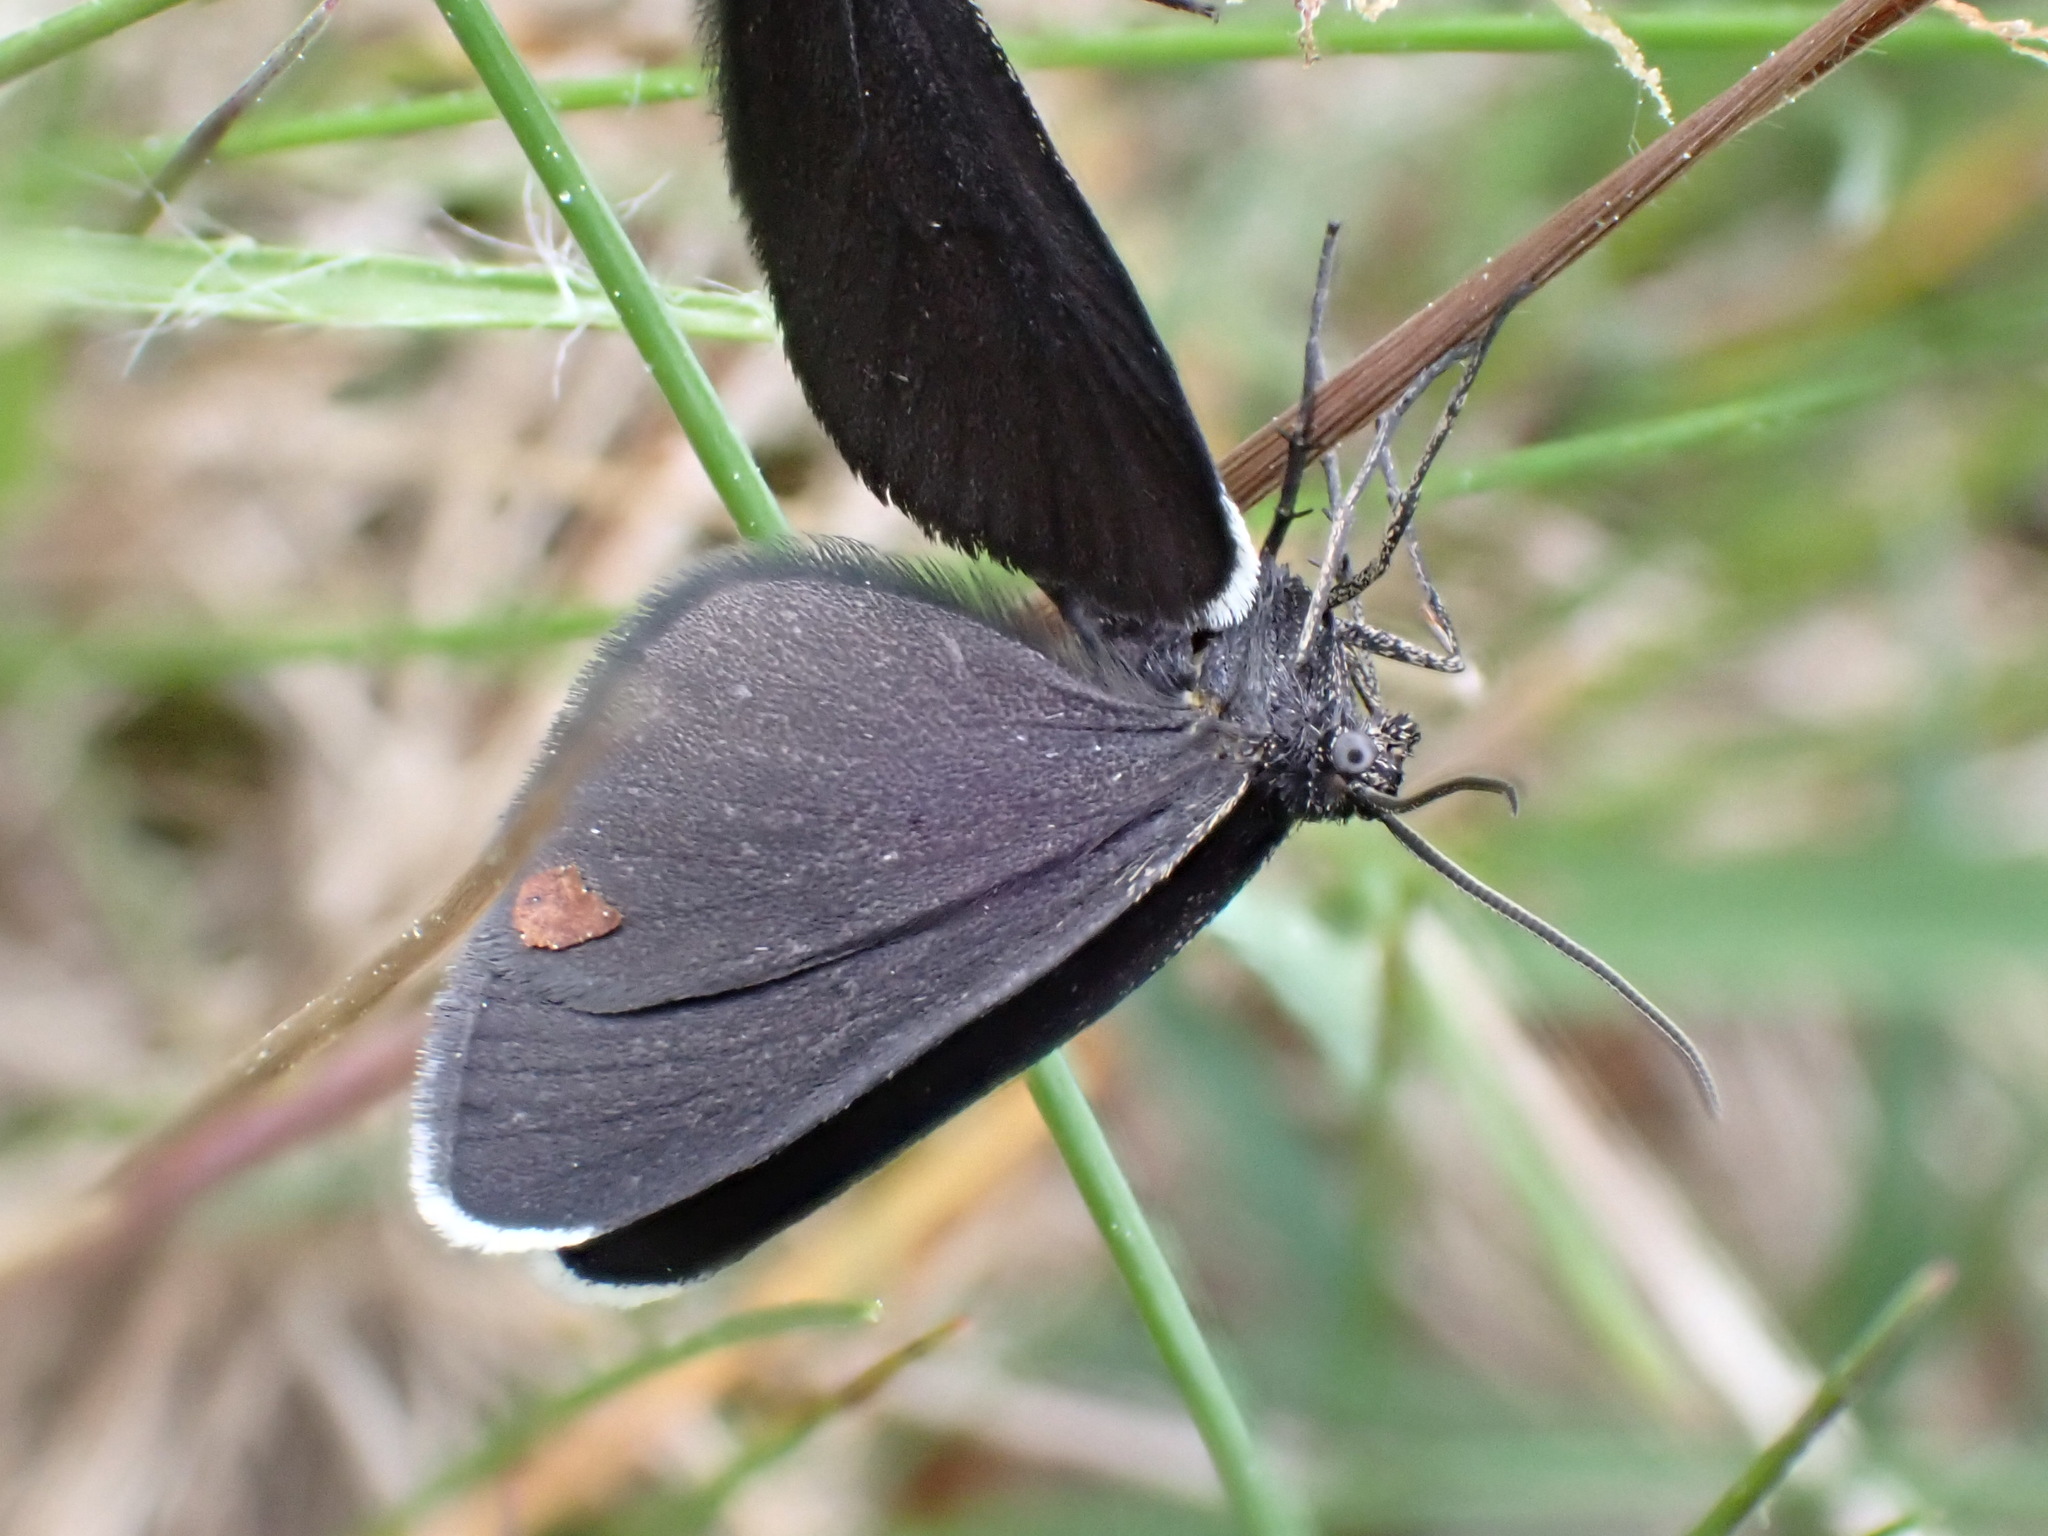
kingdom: Animalia
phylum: Arthropoda
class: Insecta
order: Lepidoptera
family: Geometridae
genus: Odezia
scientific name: Odezia atrata
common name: Chimney sweeper
